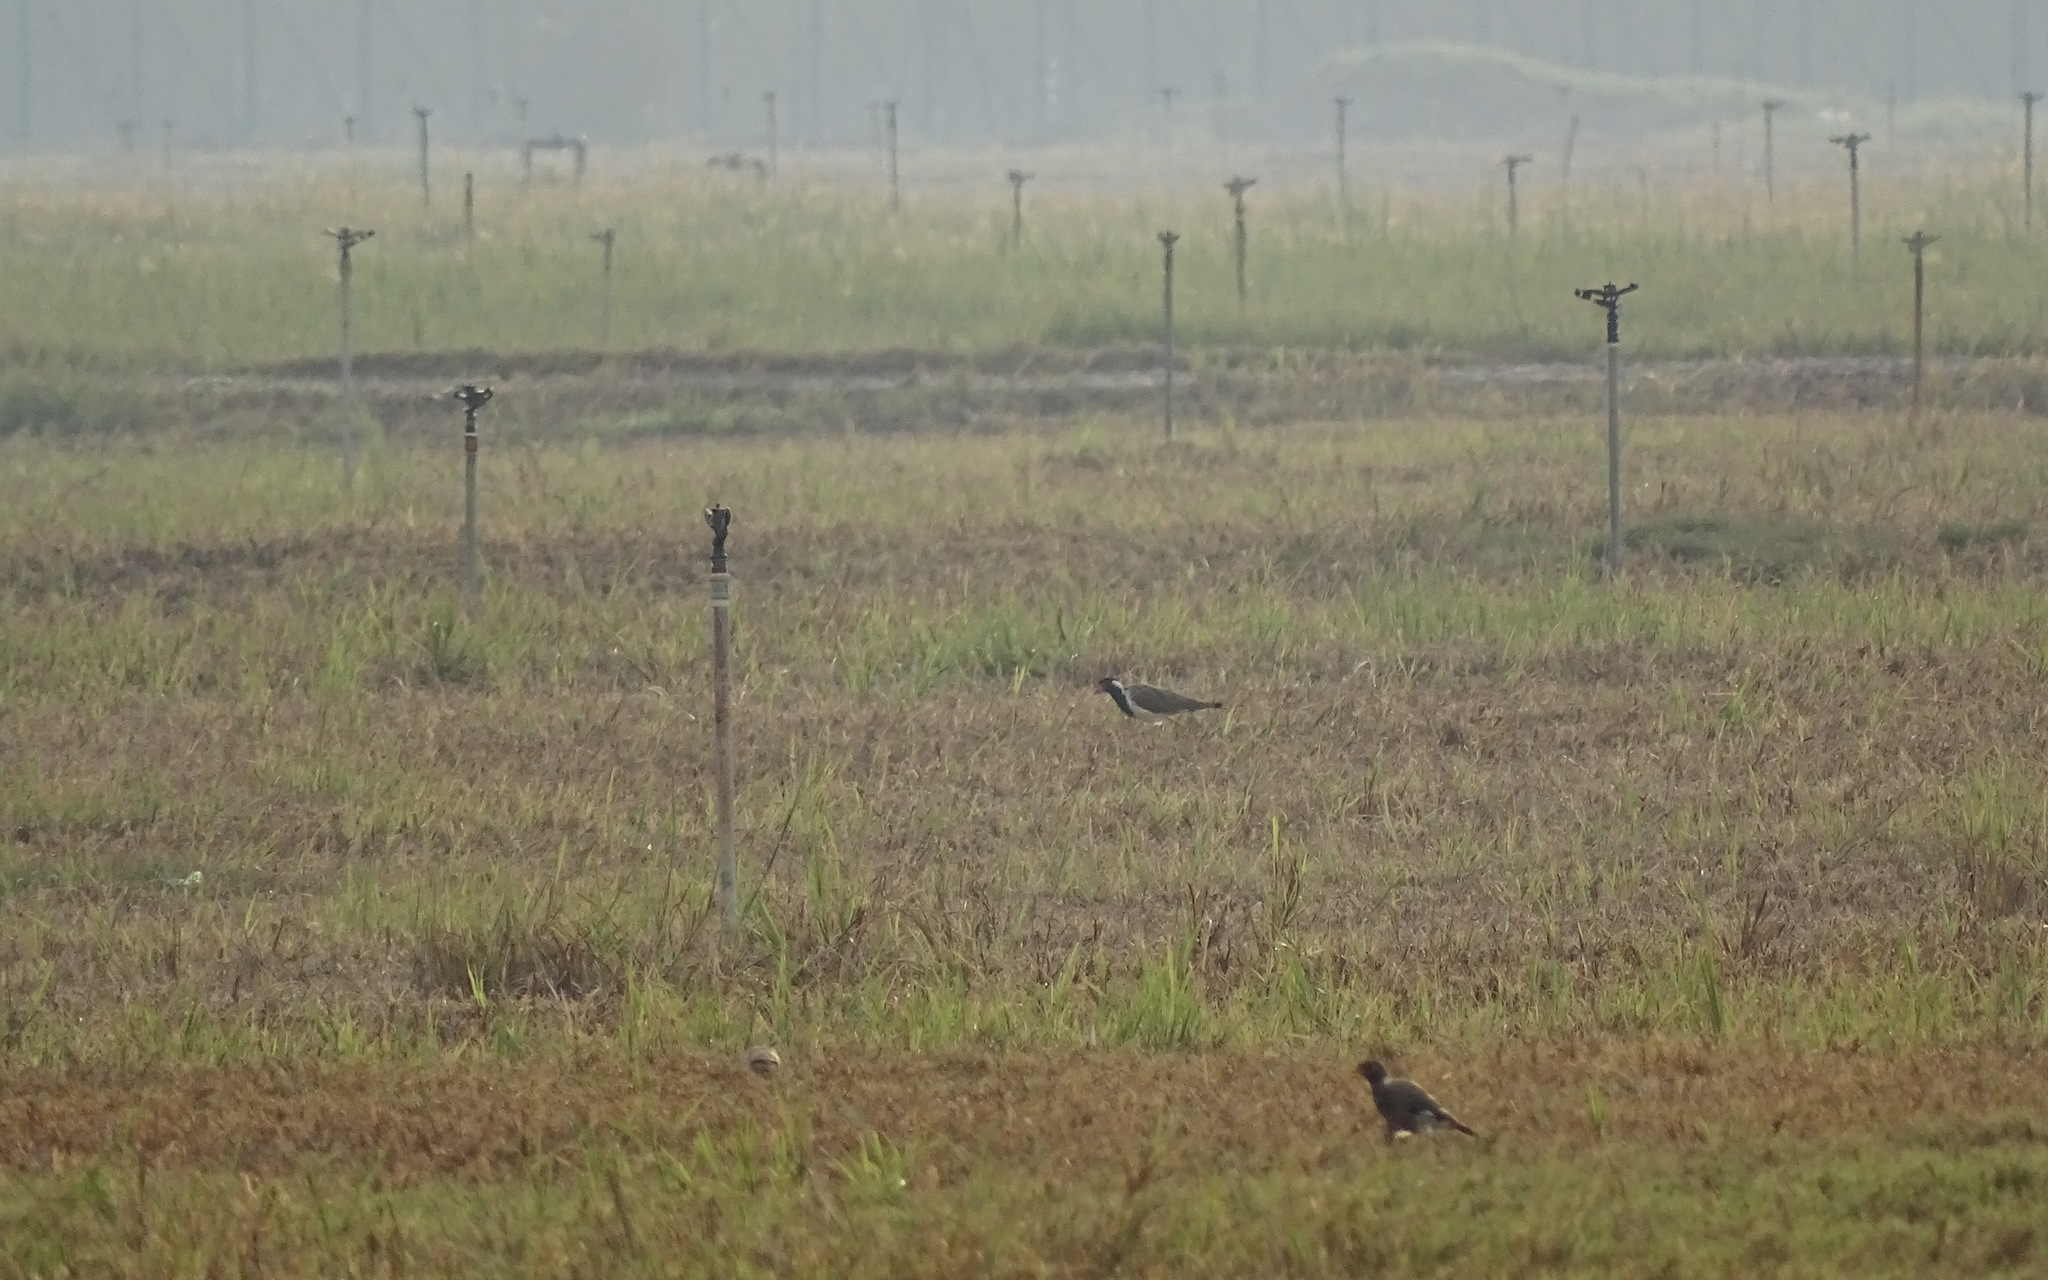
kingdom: Animalia
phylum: Chordata
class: Aves
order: Charadriiformes
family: Charadriidae
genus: Vanellus
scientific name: Vanellus indicus
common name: Red-wattled lapwing
